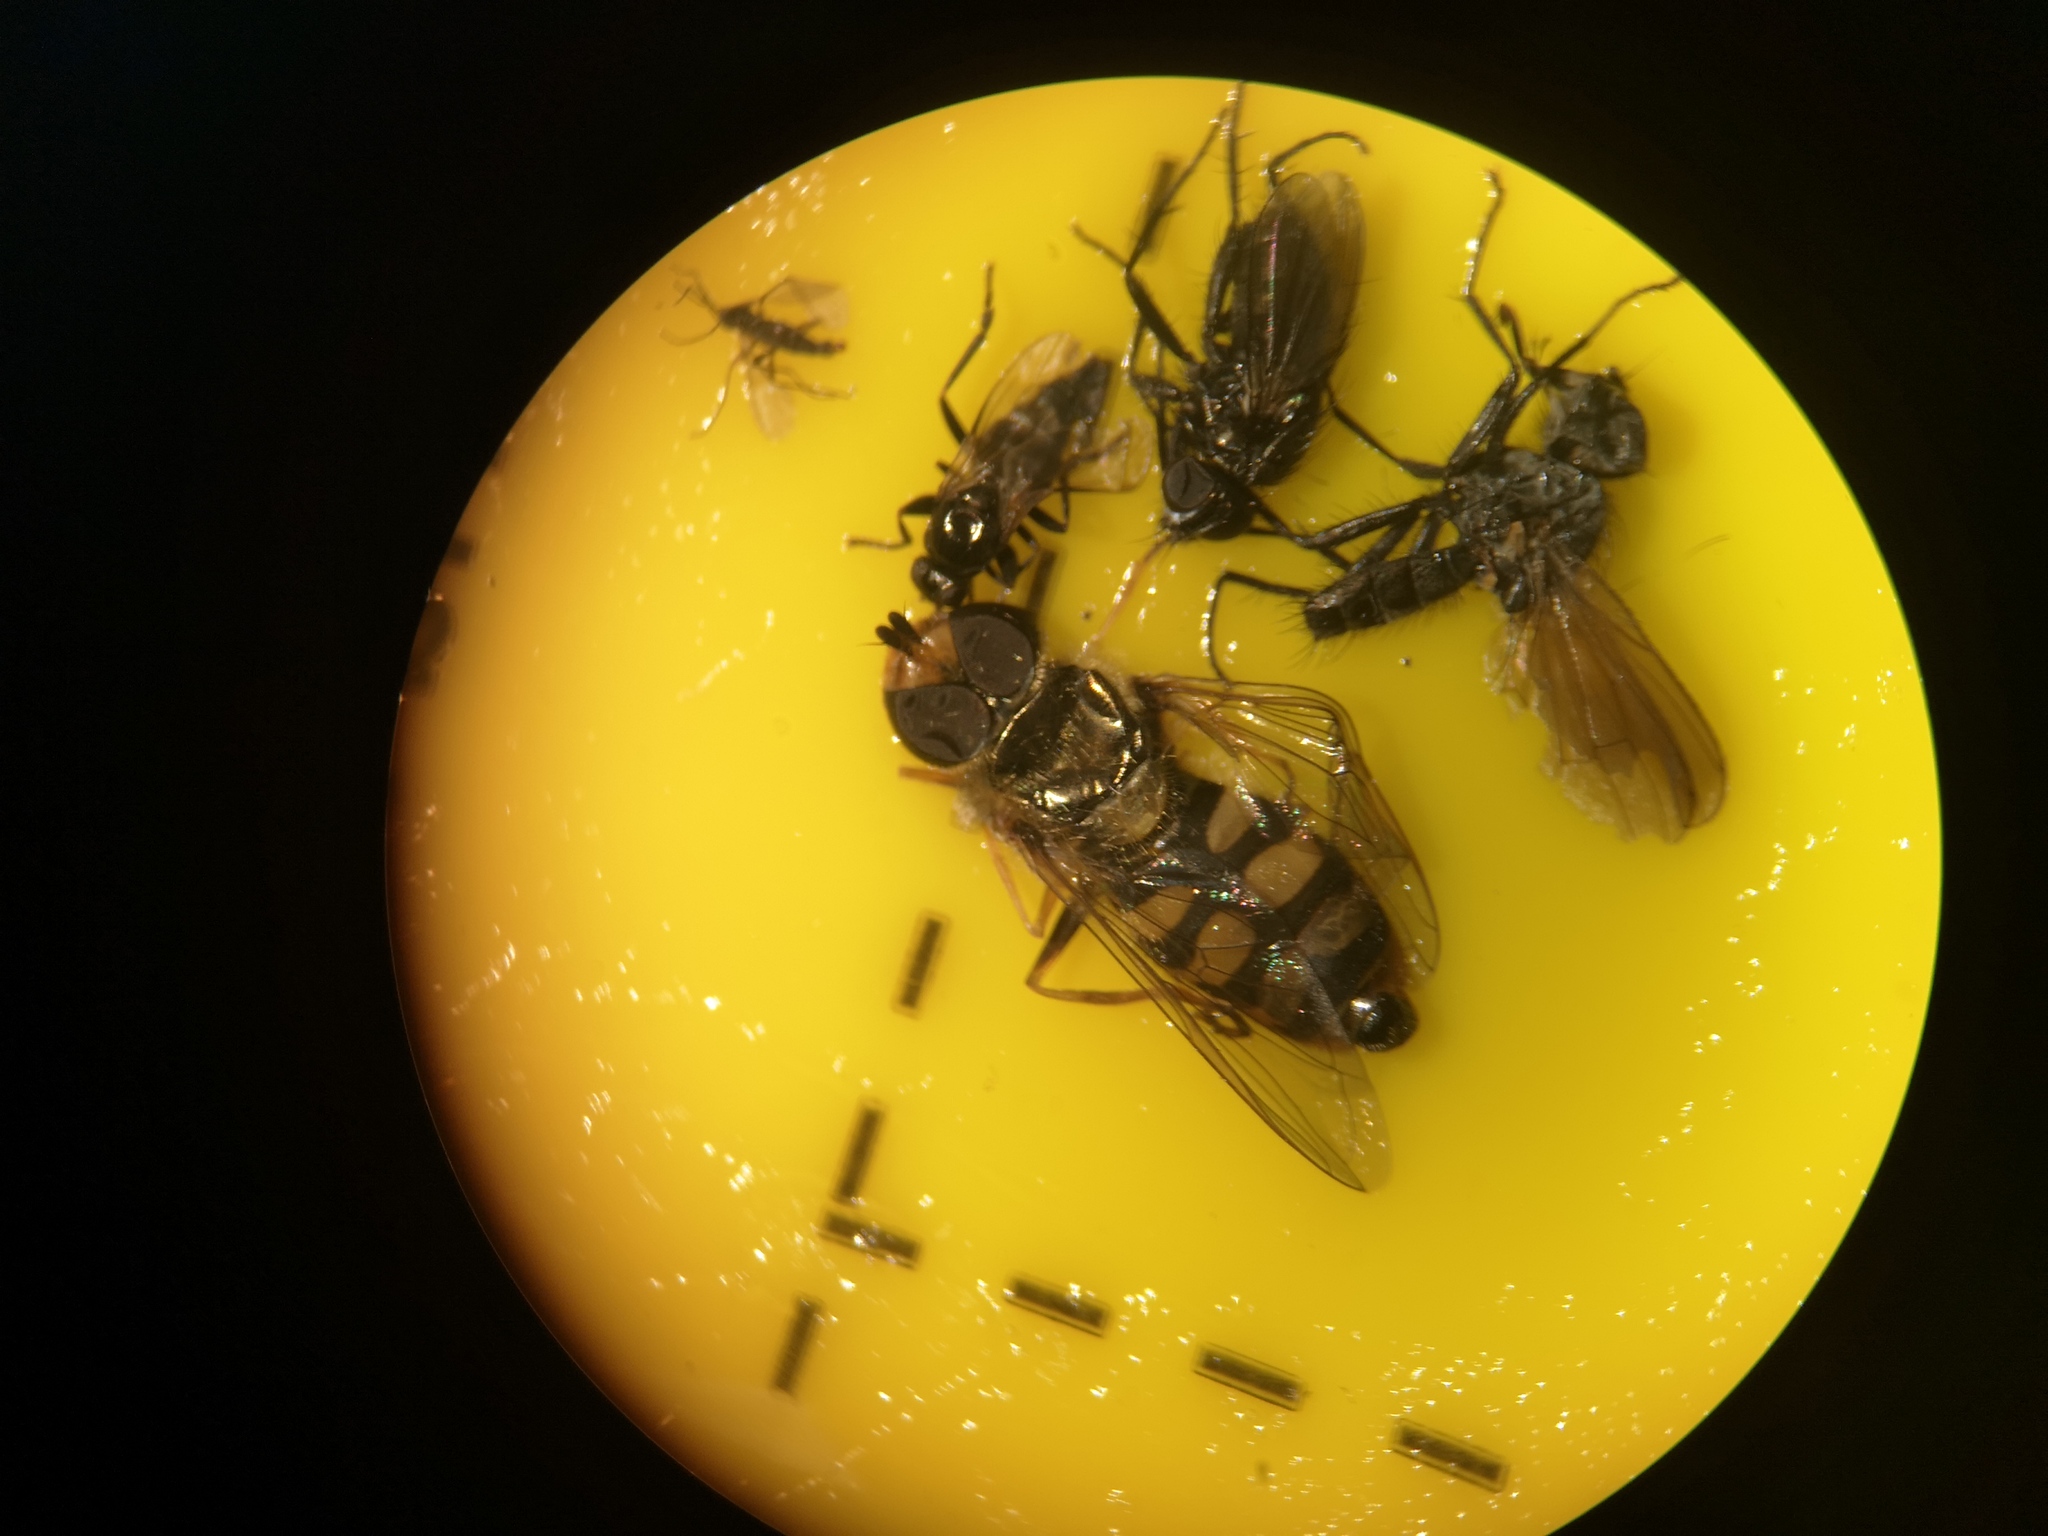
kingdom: Animalia
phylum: Arthropoda
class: Insecta
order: Diptera
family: Syrphidae
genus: Eupeodes
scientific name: Eupeodes corollae
